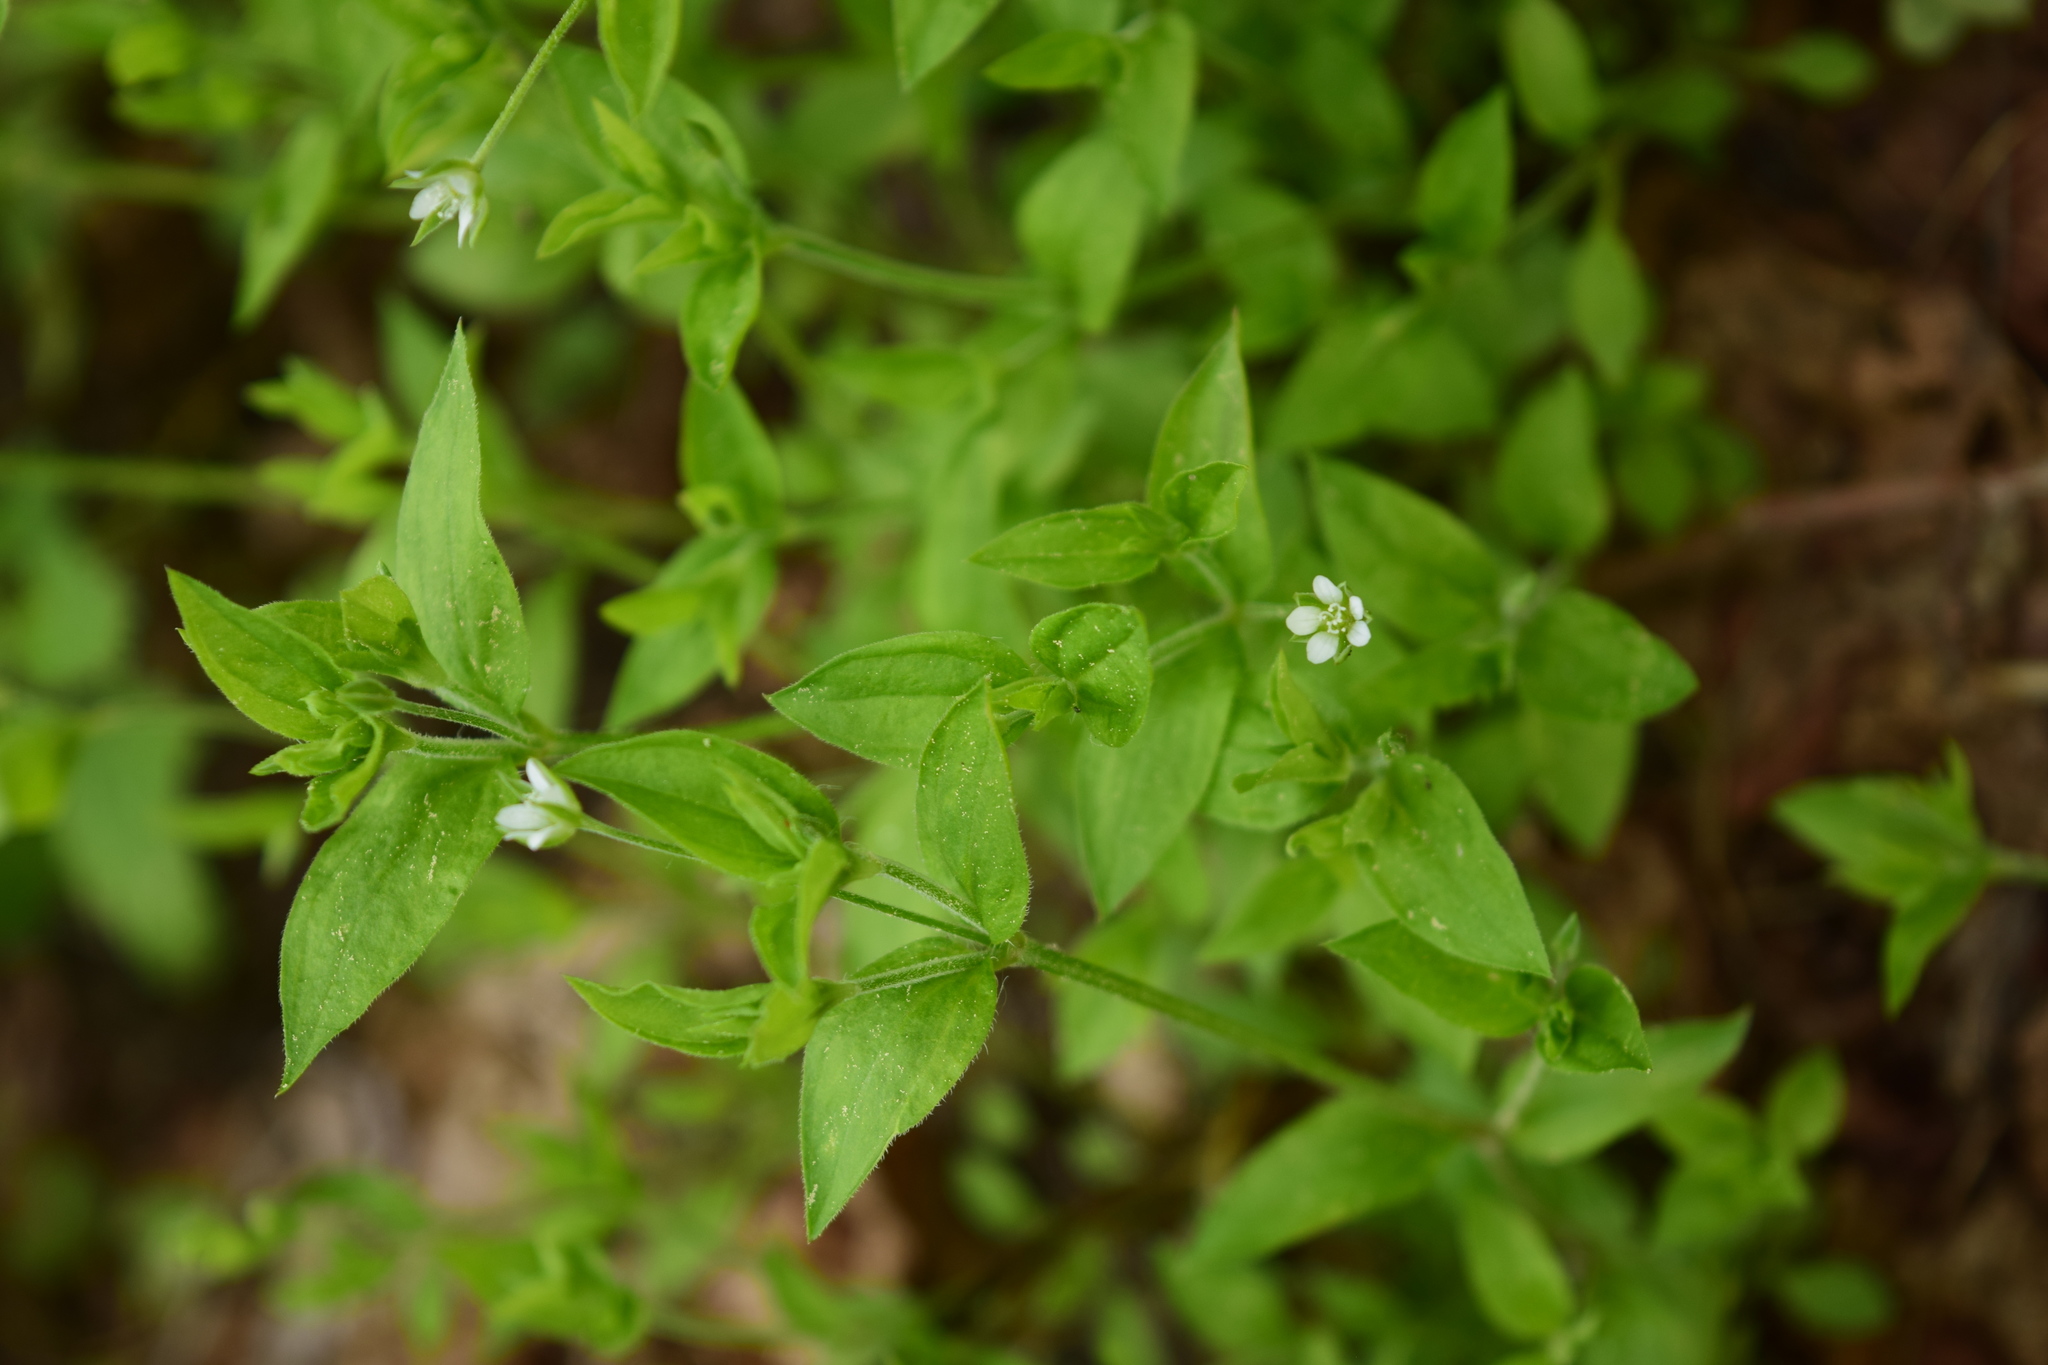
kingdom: Plantae
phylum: Tracheophyta
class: Magnoliopsida
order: Caryophyllales
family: Caryophyllaceae
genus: Moehringia
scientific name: Moehringia trinervia
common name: Three-nerved sandwort
